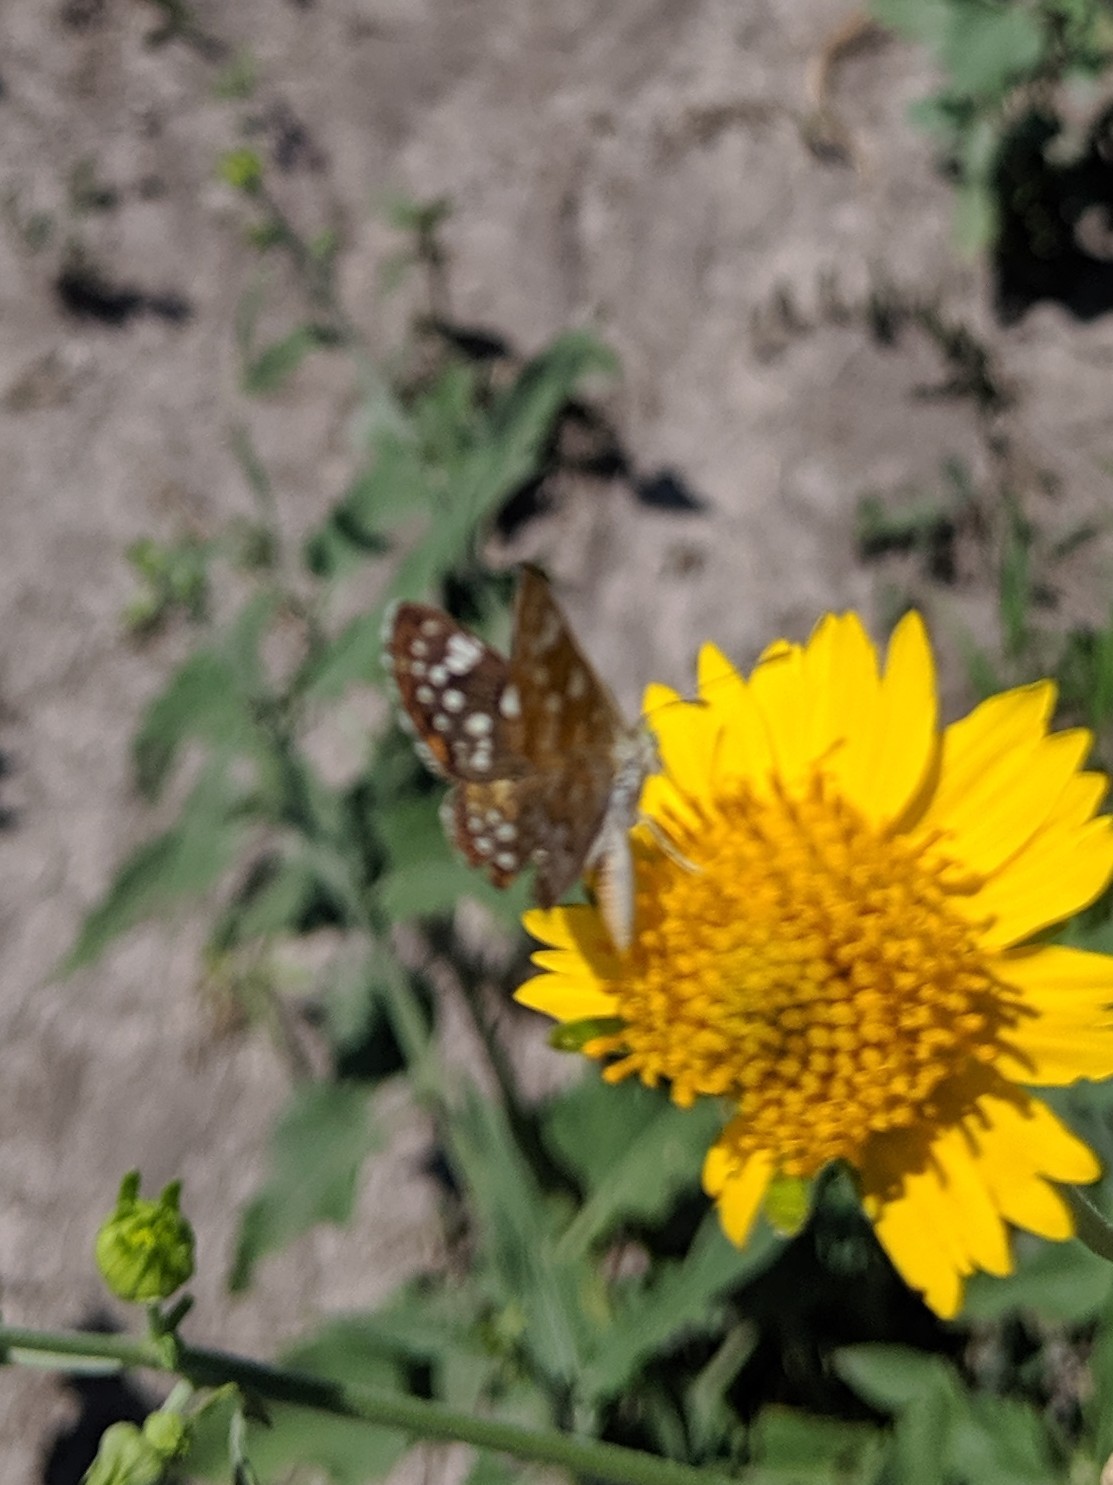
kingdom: Animalia
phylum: Arthropoda
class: Insecta
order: Lepidoptera
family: Riodinidae
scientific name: Riodinidae
